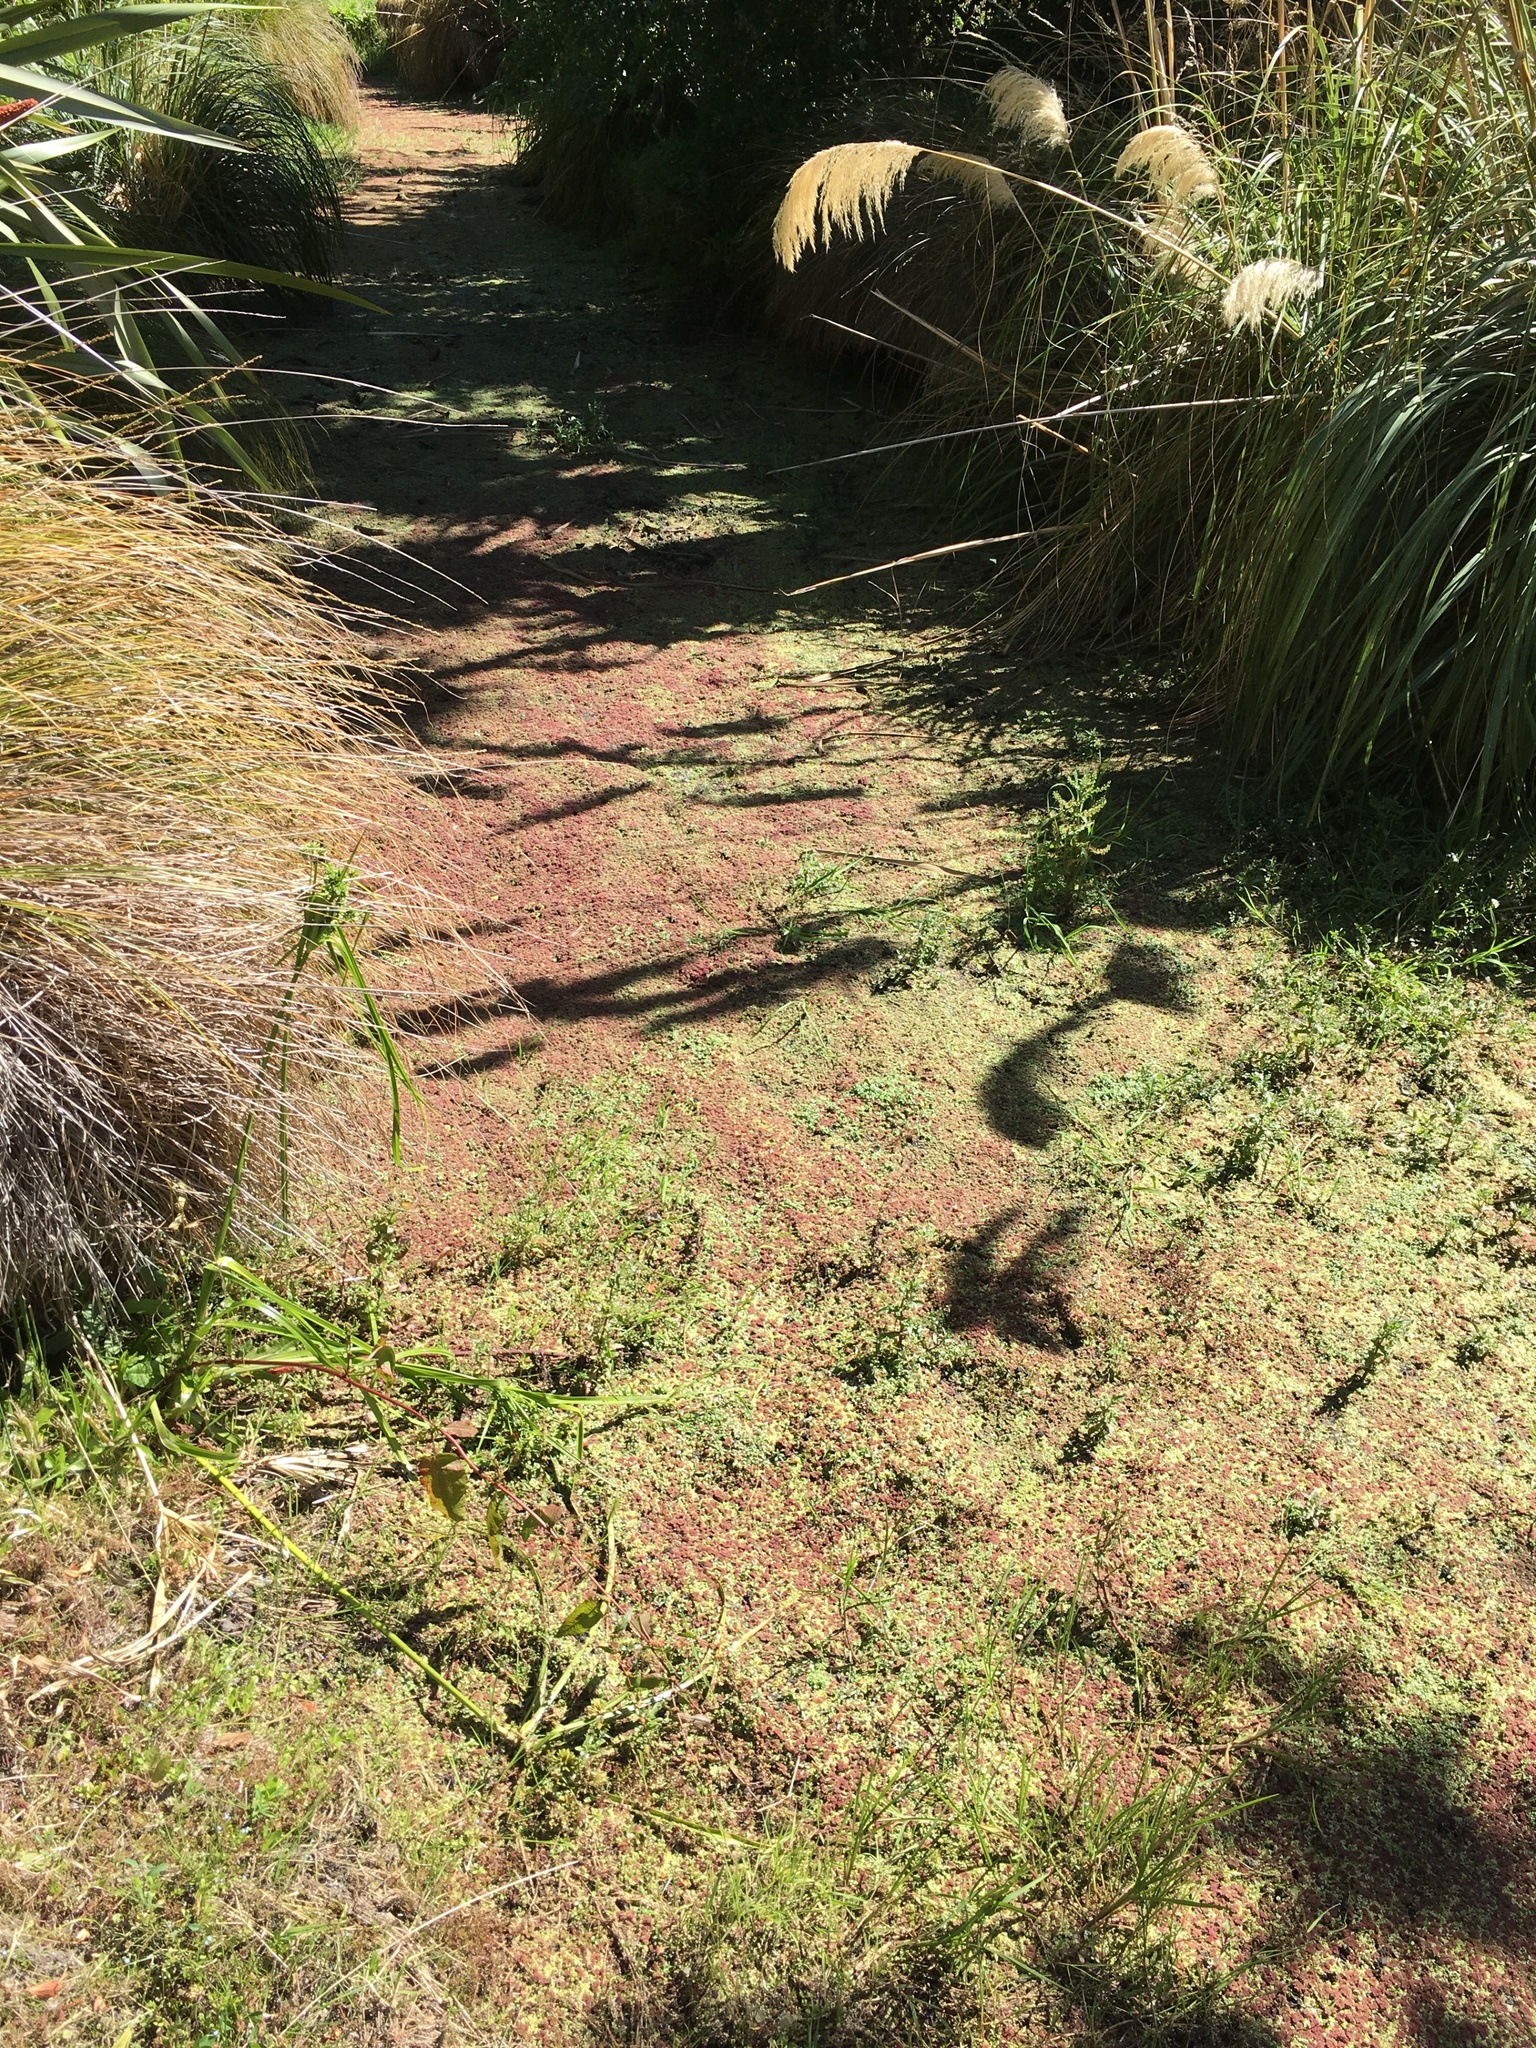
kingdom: Plantae
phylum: Tracheophyta
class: Polypodiopsida
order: Salviniales
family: Salviniaceae
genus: Azolla
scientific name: Azolla rubra
